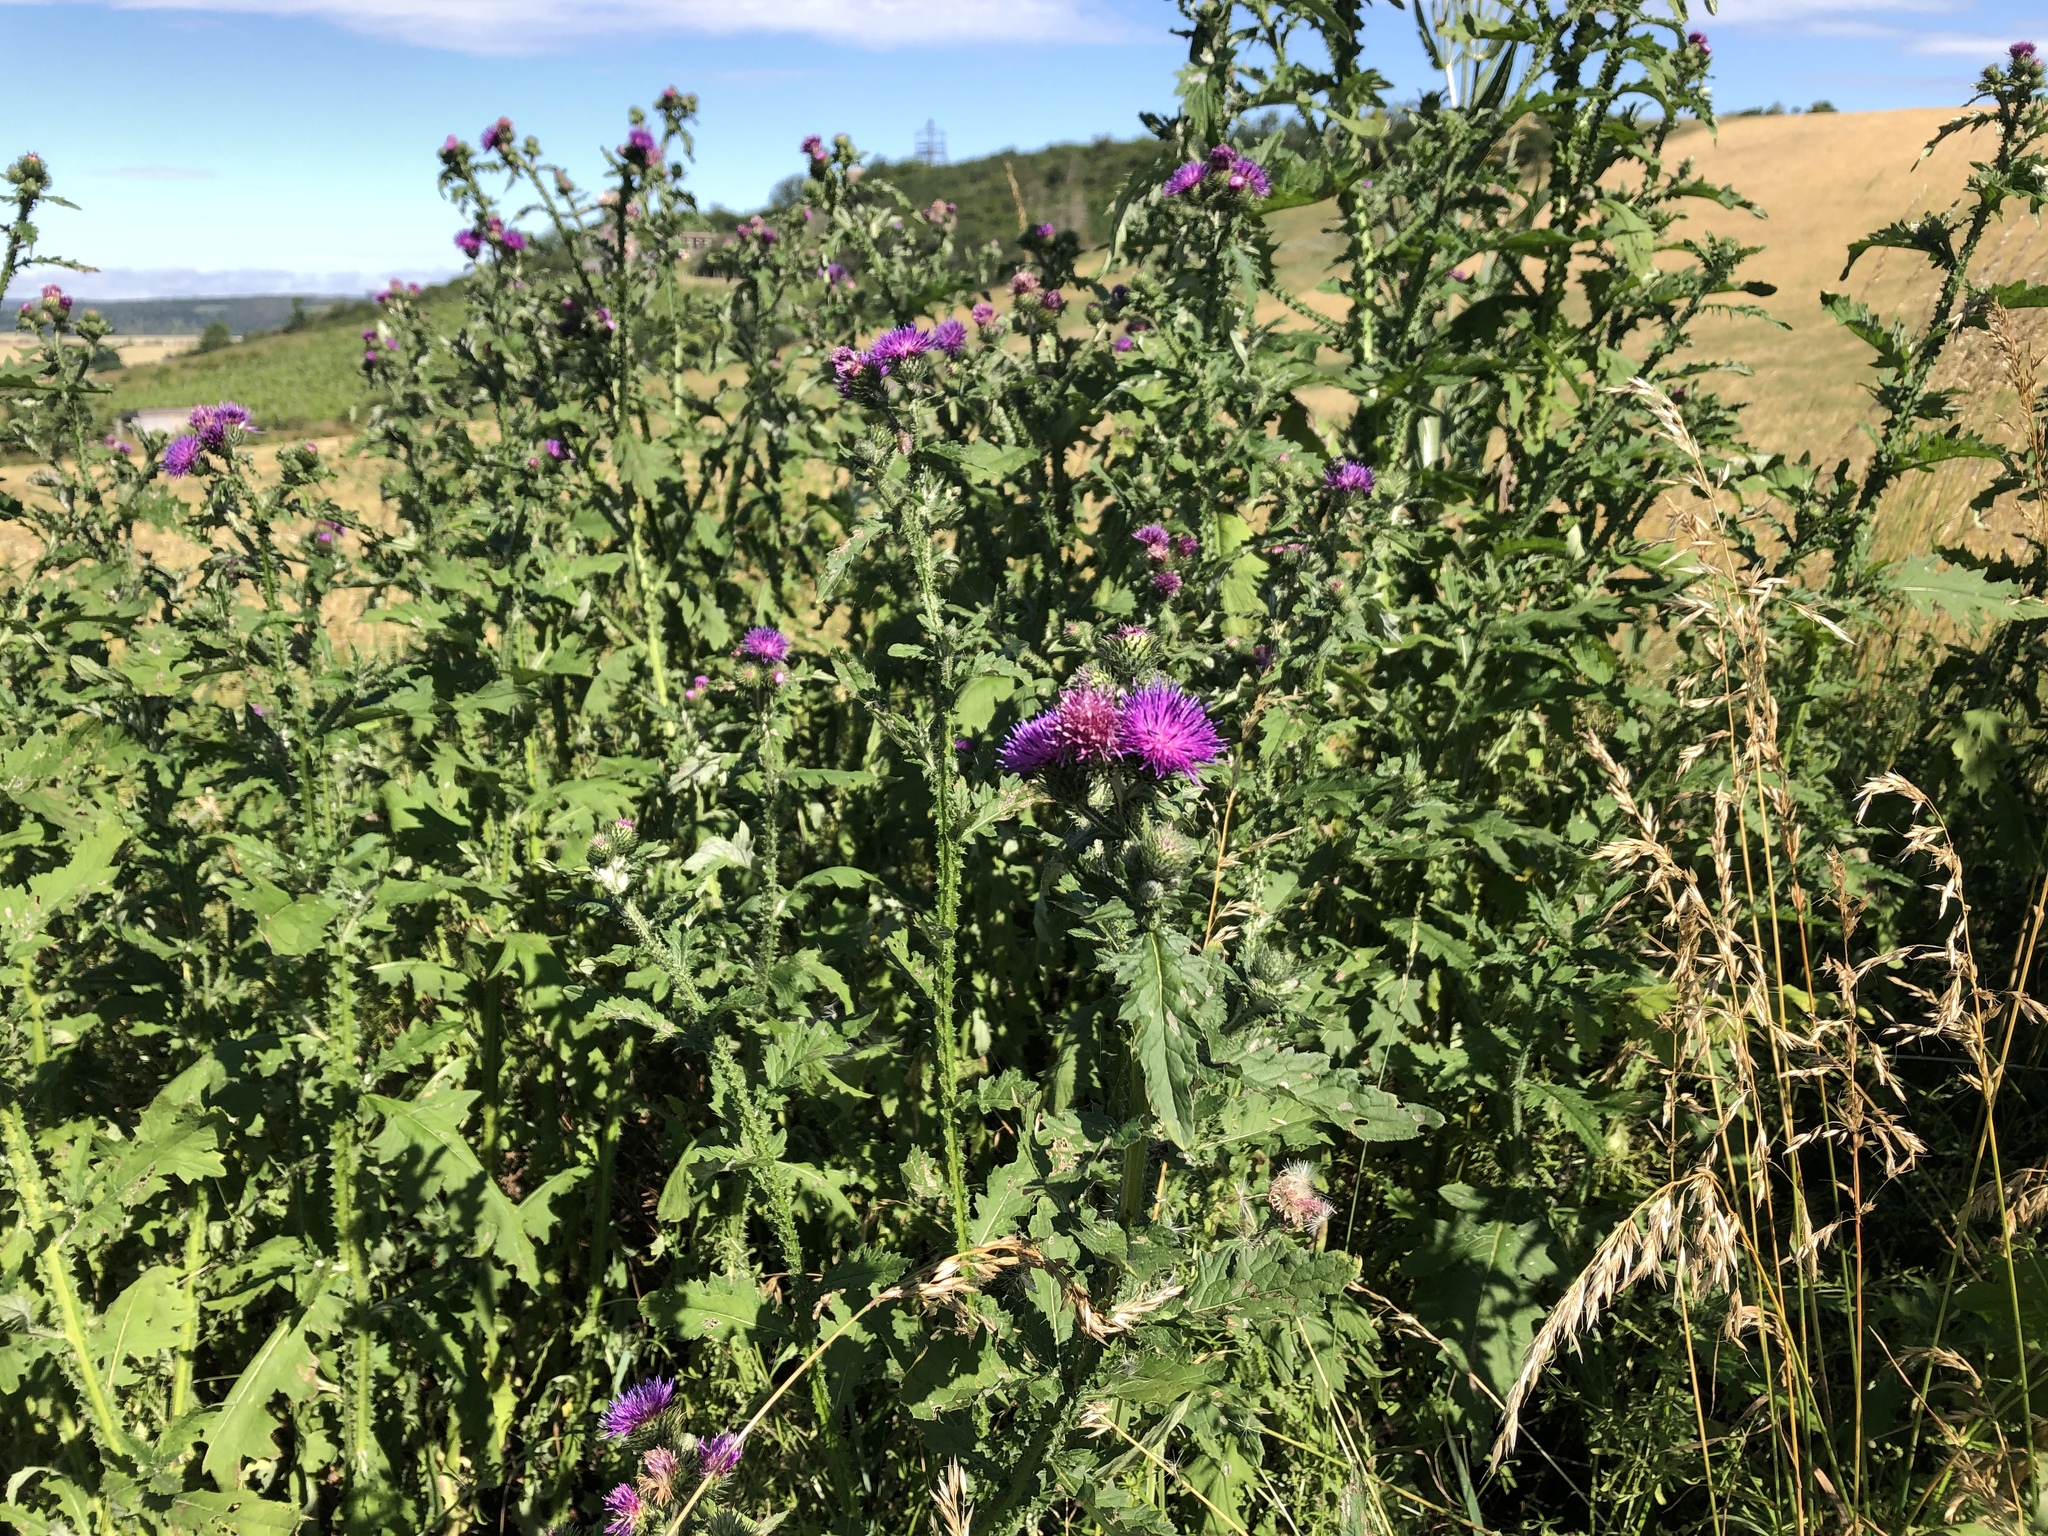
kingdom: Plantae
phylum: Tracheophyta
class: Magnoliopsida
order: Asterales
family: Asteraceae
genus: Carduus
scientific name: Carduus crispus
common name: Welted thistle
